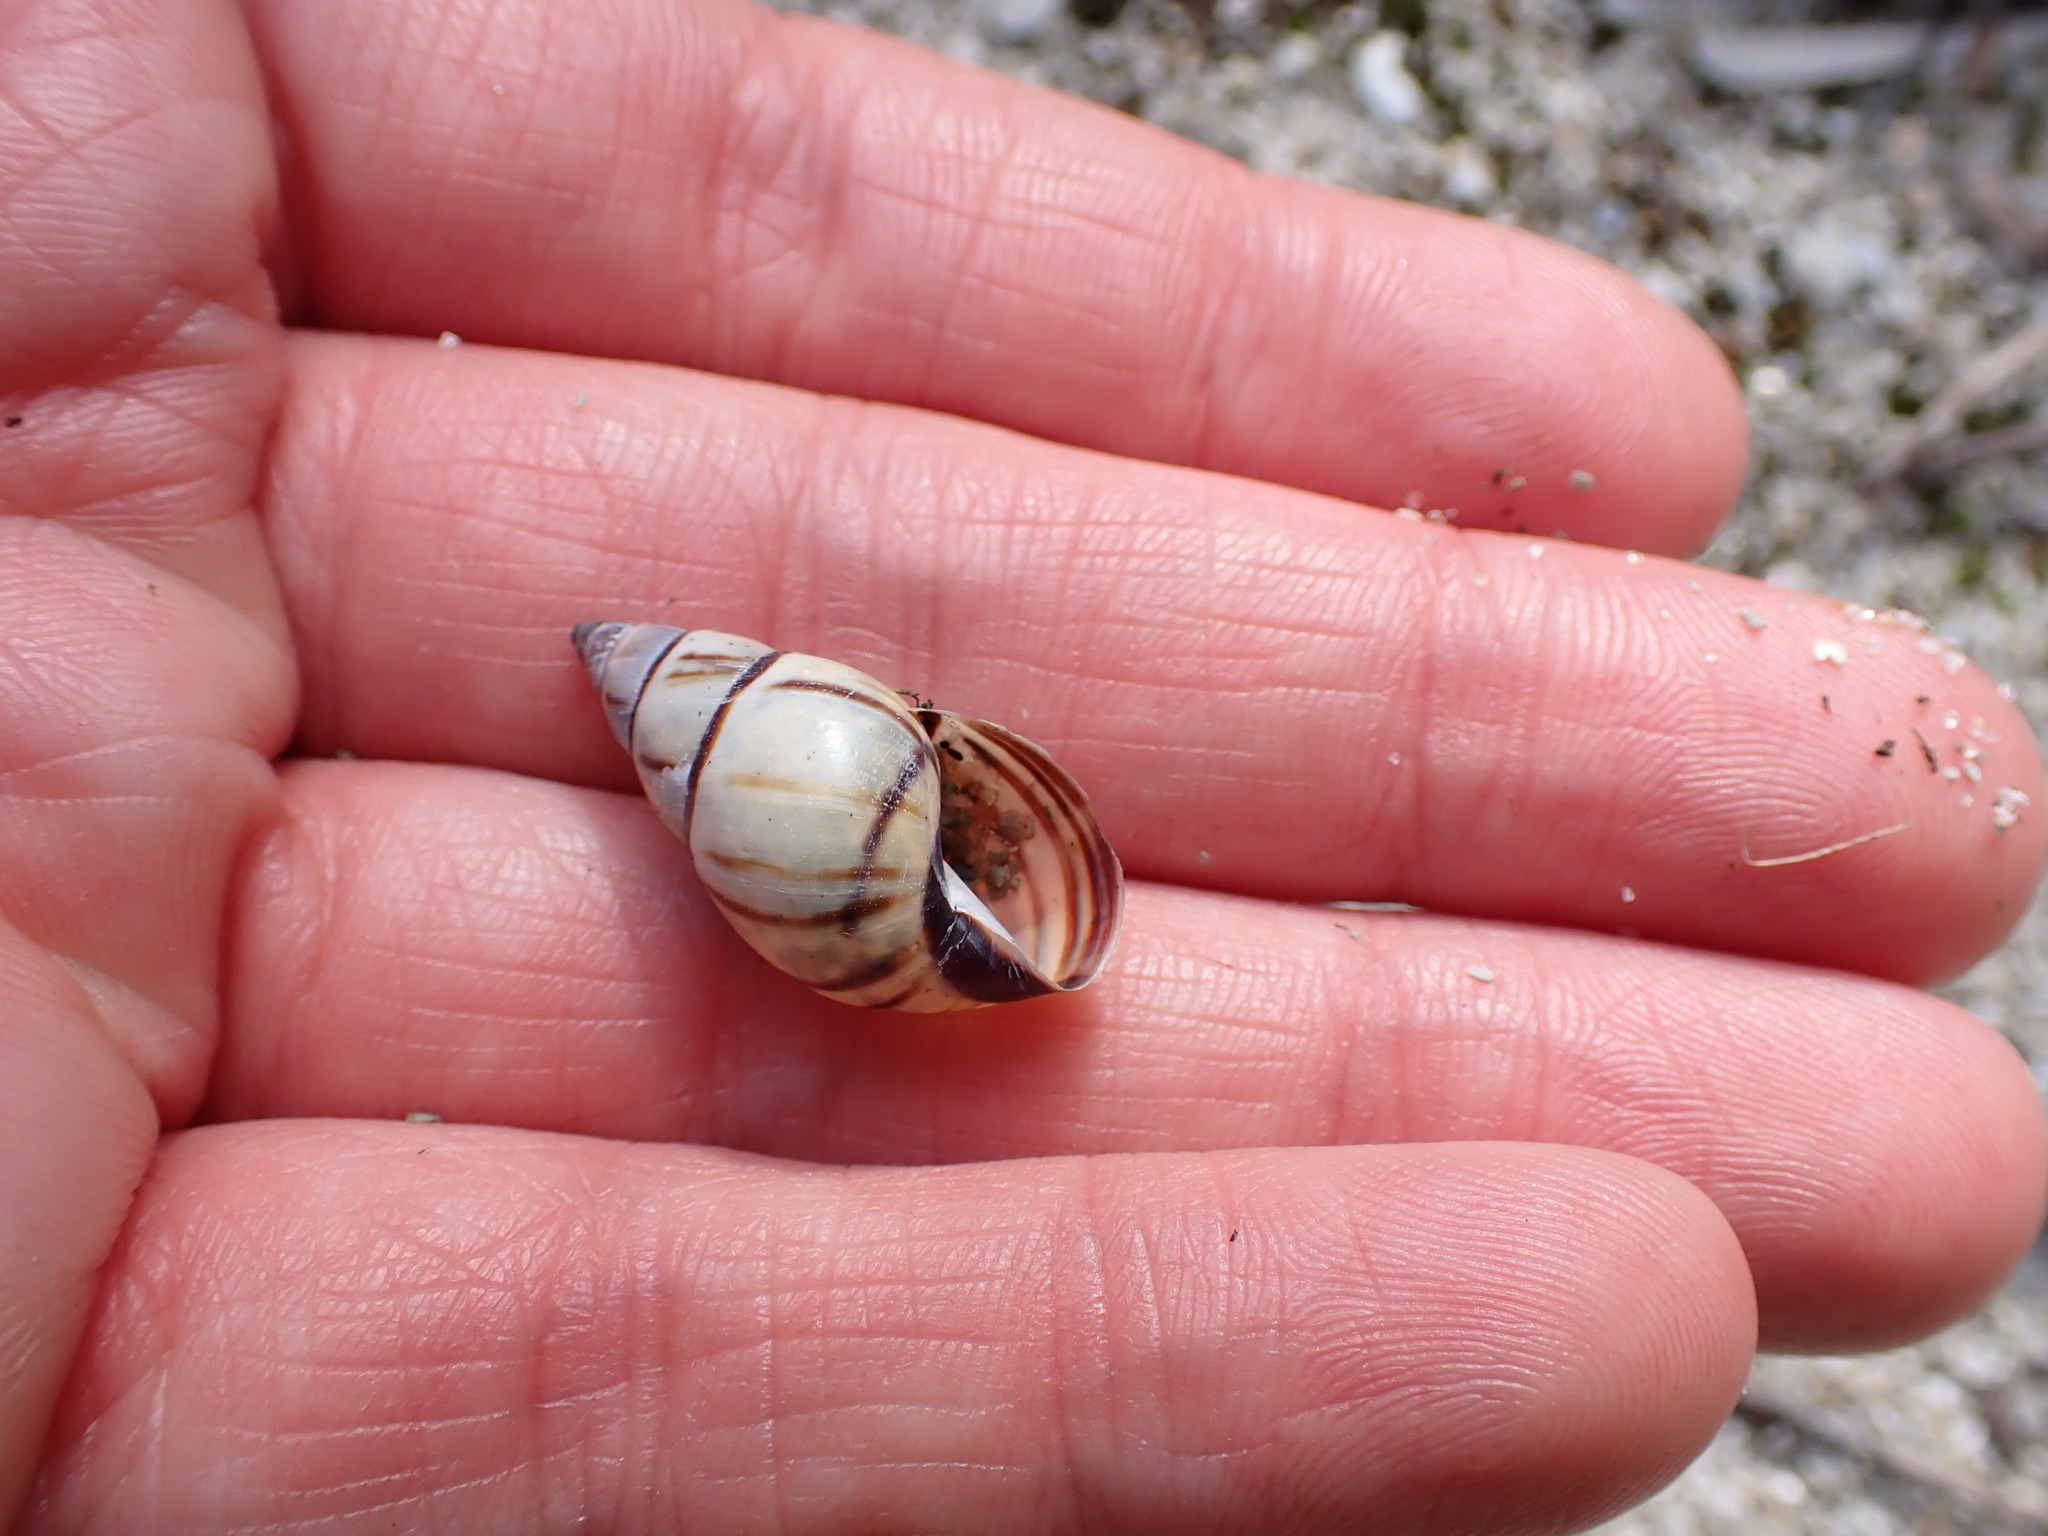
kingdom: Animalia
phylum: Mollusca
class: Gastropoda
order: Stylommatophora
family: Bulimulidae
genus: Drymaeus
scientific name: Drymaeus
